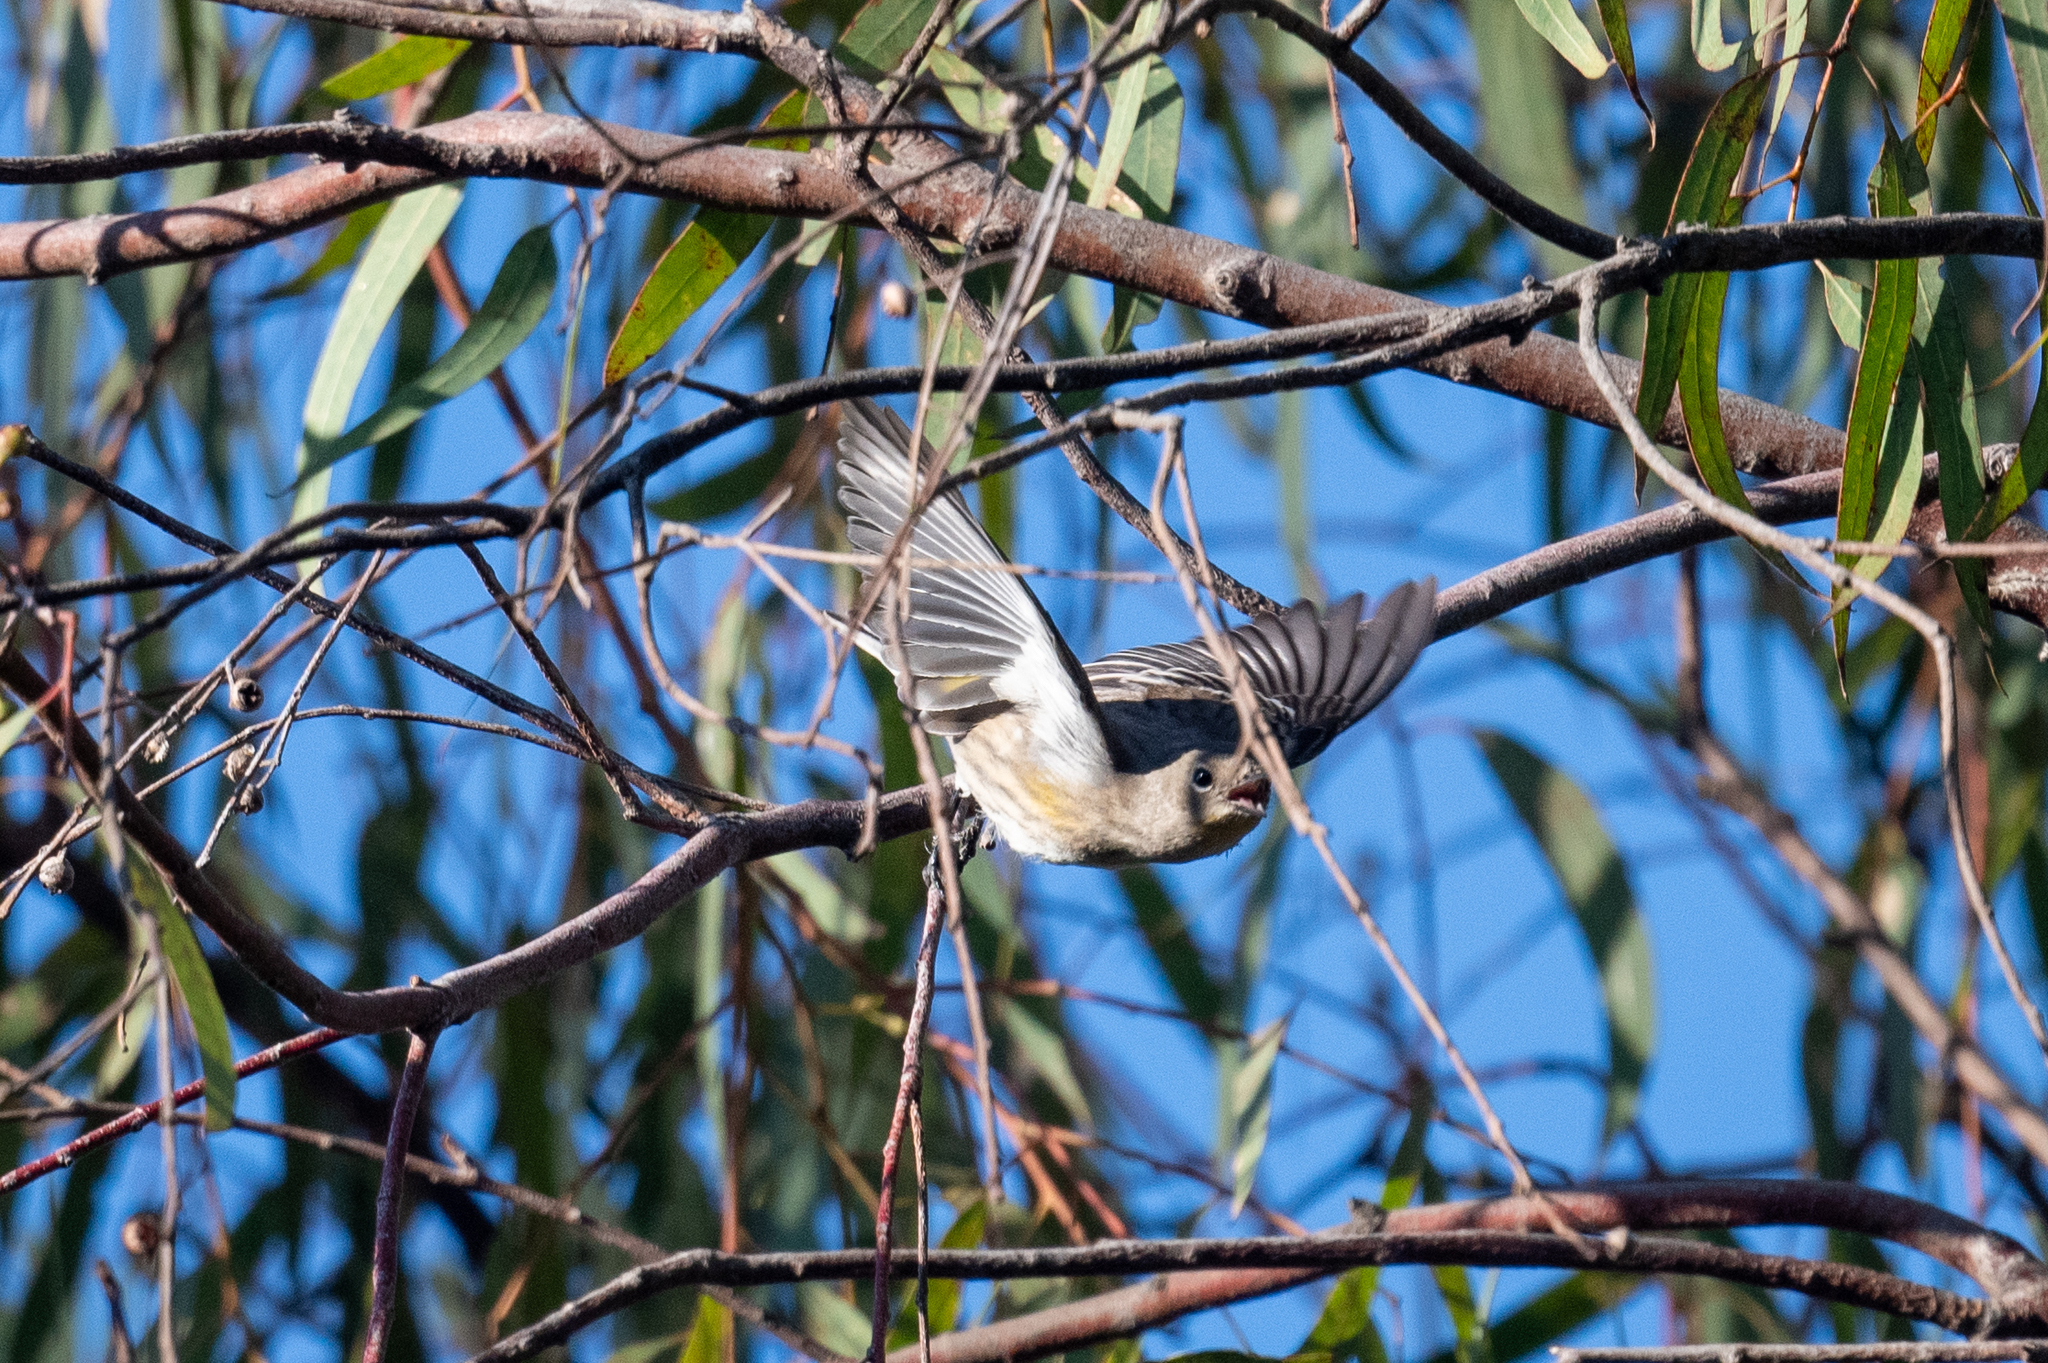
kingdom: Animalia
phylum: Chordata
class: Aves
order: Passeriformes
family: Parulidae
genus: Setophaga
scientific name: Setophaga coronata
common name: Myrtle warbler
